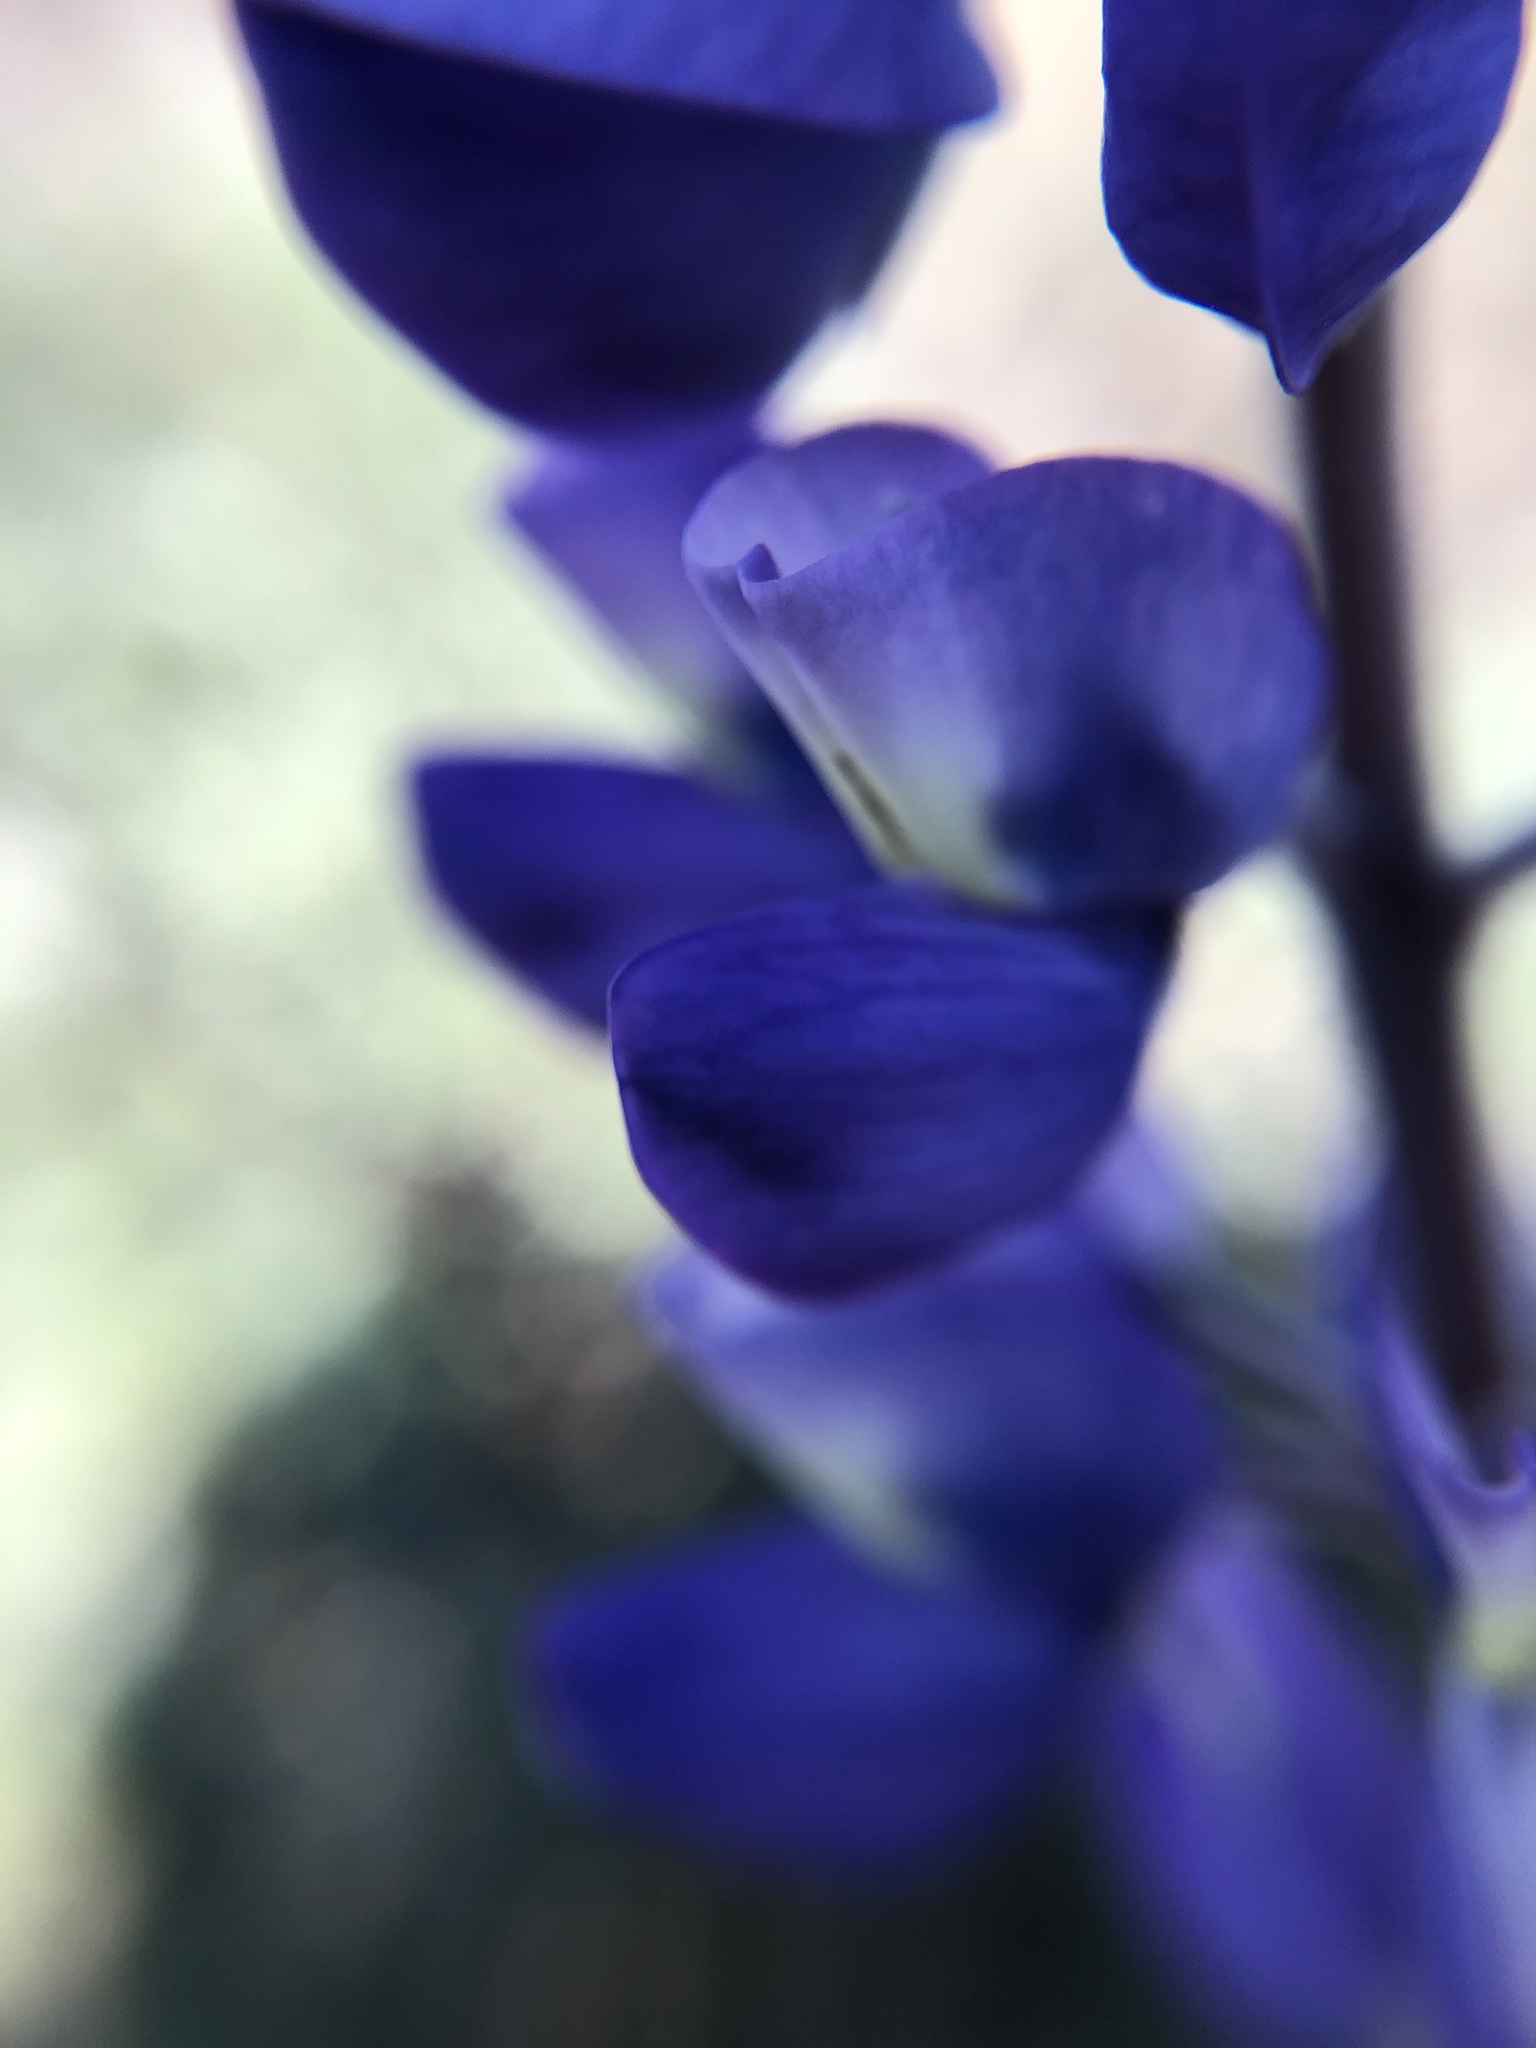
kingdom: Plantae
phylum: Tracheophyta
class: Magnoliopsida
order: Fabales
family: Fabaceae
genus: Lupinus
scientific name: Lupinus albifrons
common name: Foothill lupine
